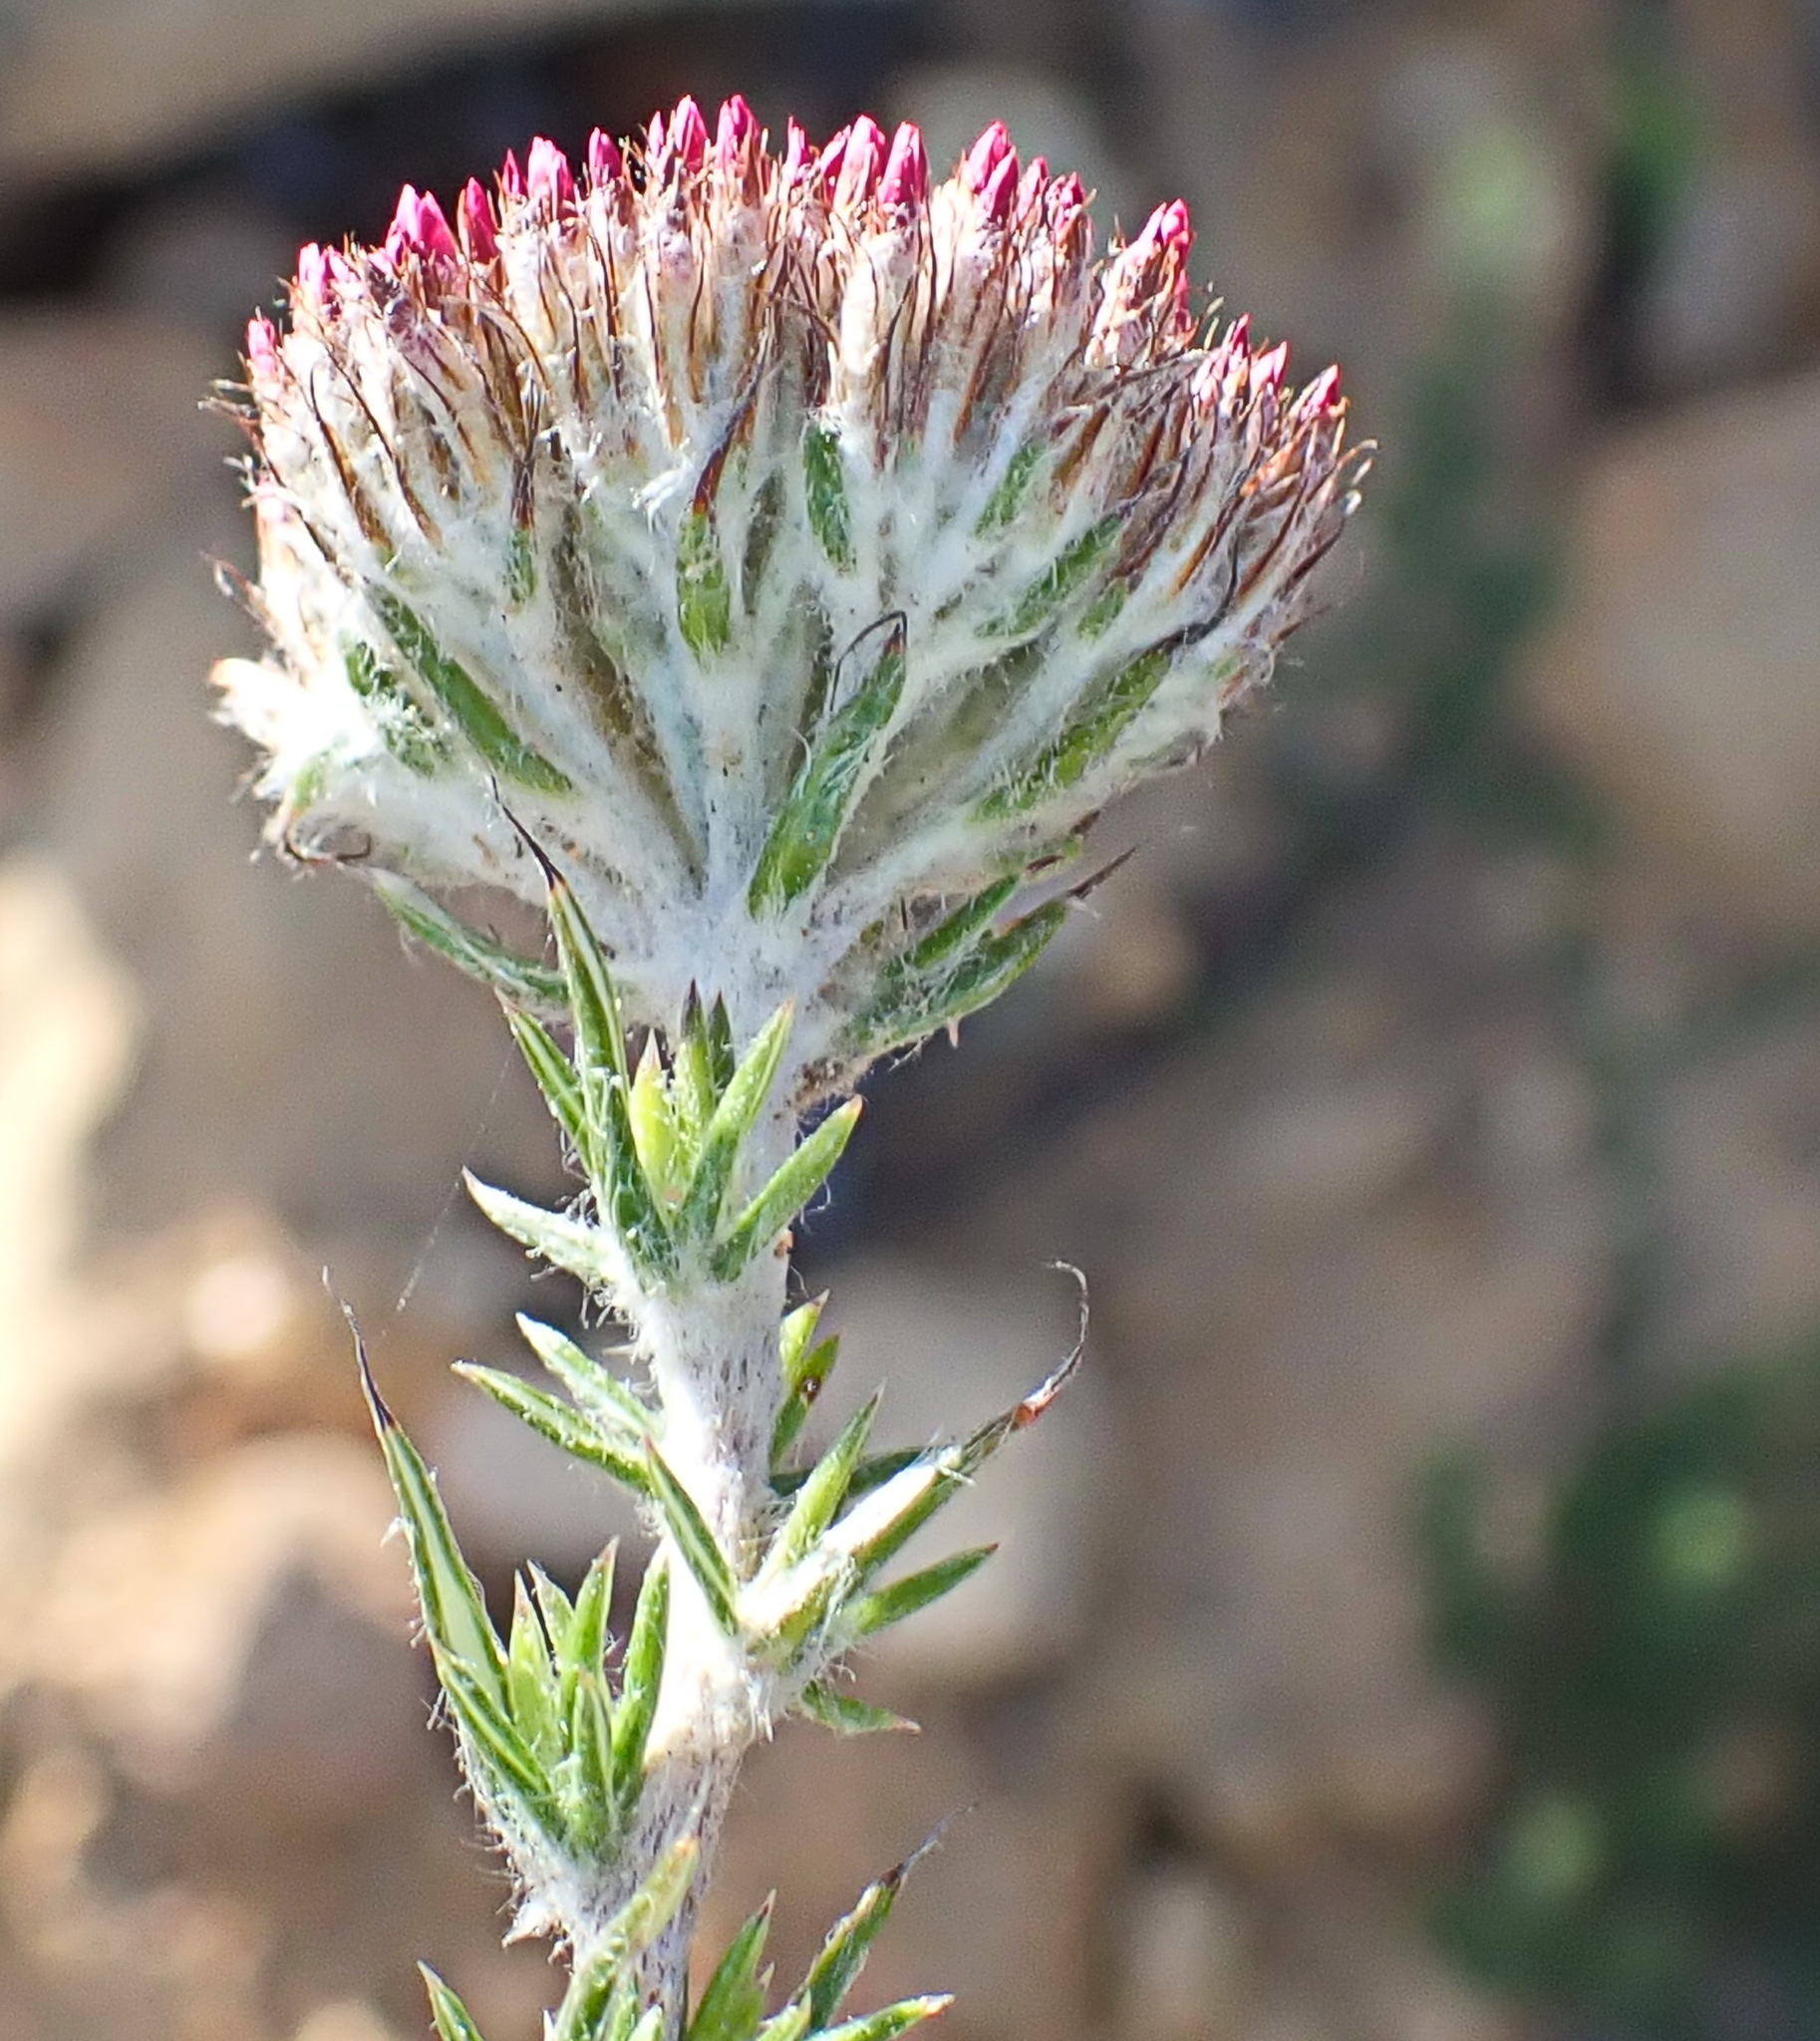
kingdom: Plantae
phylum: Tracheophyta
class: Magnoliopsida
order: Asterales
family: Asteraceae
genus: Metalasia
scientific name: Metalasia pungens
